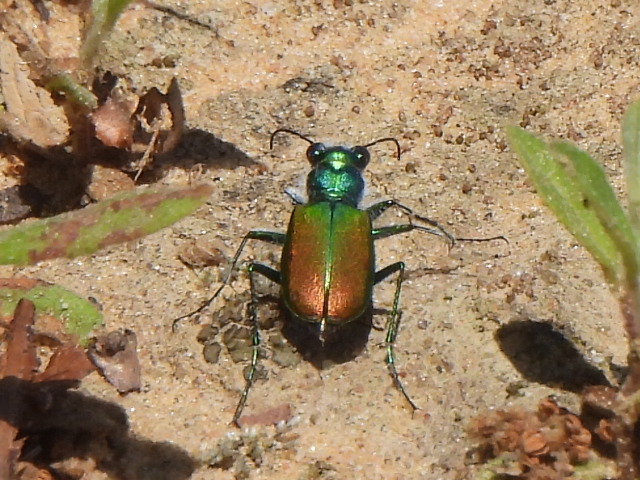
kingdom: Animalia
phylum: Arthropoda
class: Insecta
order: Coleoptera
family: Carabidae
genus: Cicindela
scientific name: Cicindela scutellaris
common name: Festive tiger beetle
